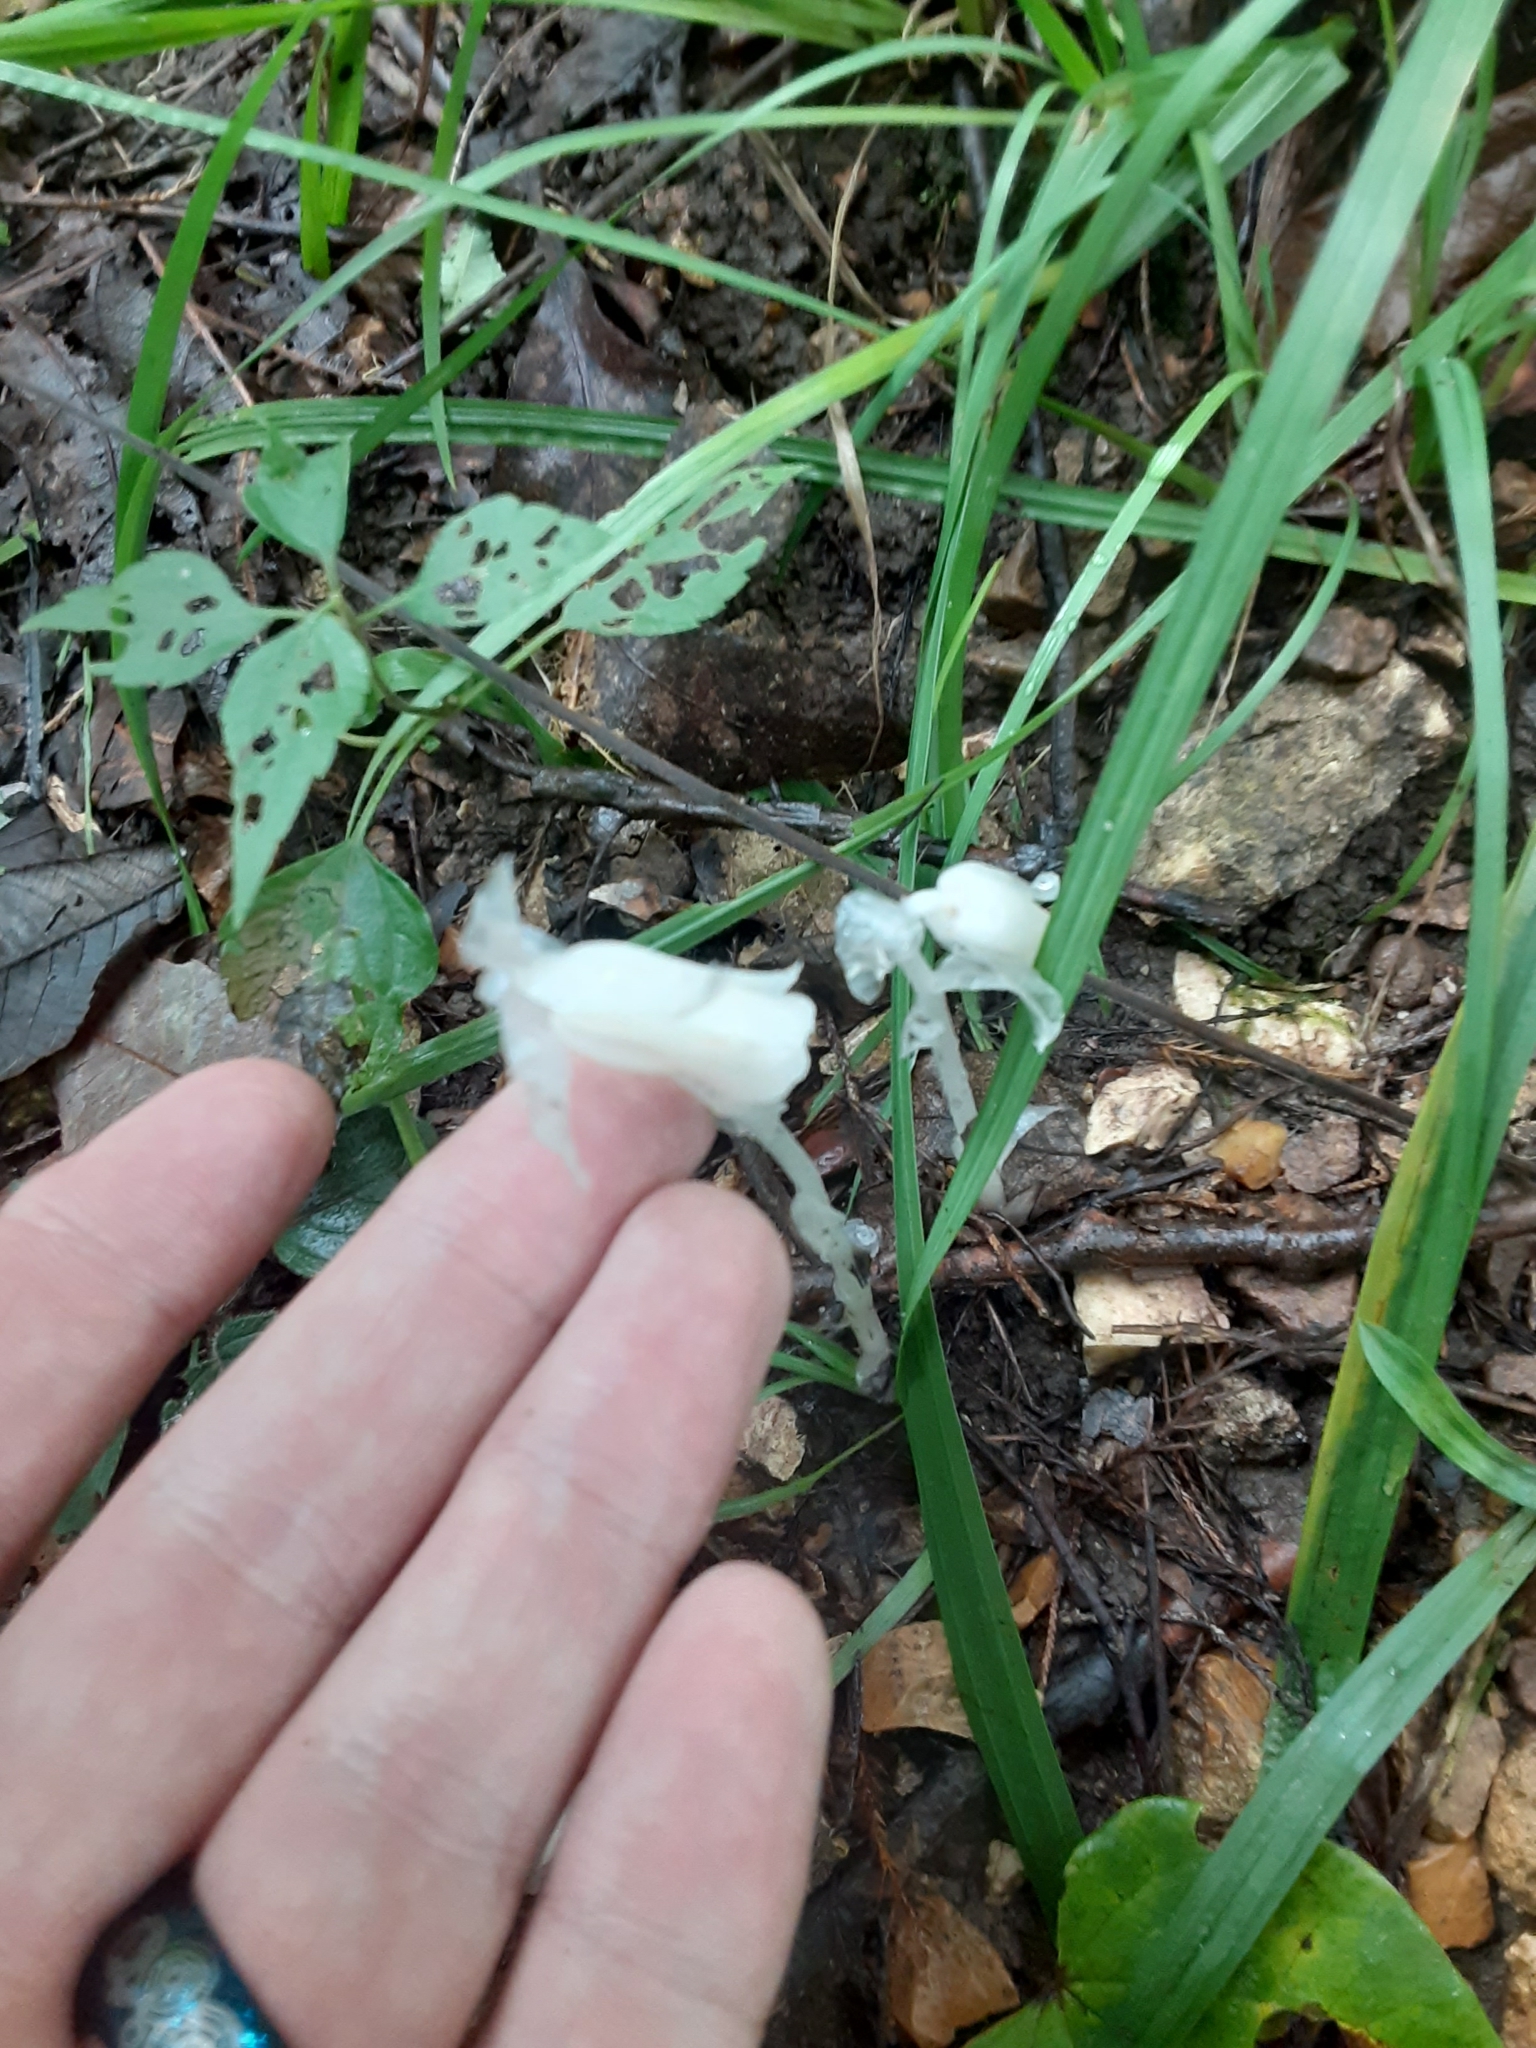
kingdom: Plantae
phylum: Tracheophyta
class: Magnoliopsida
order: Ericales
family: Ericaceae
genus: Monotropa
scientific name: Monotropa uniflora
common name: Convulsion root
